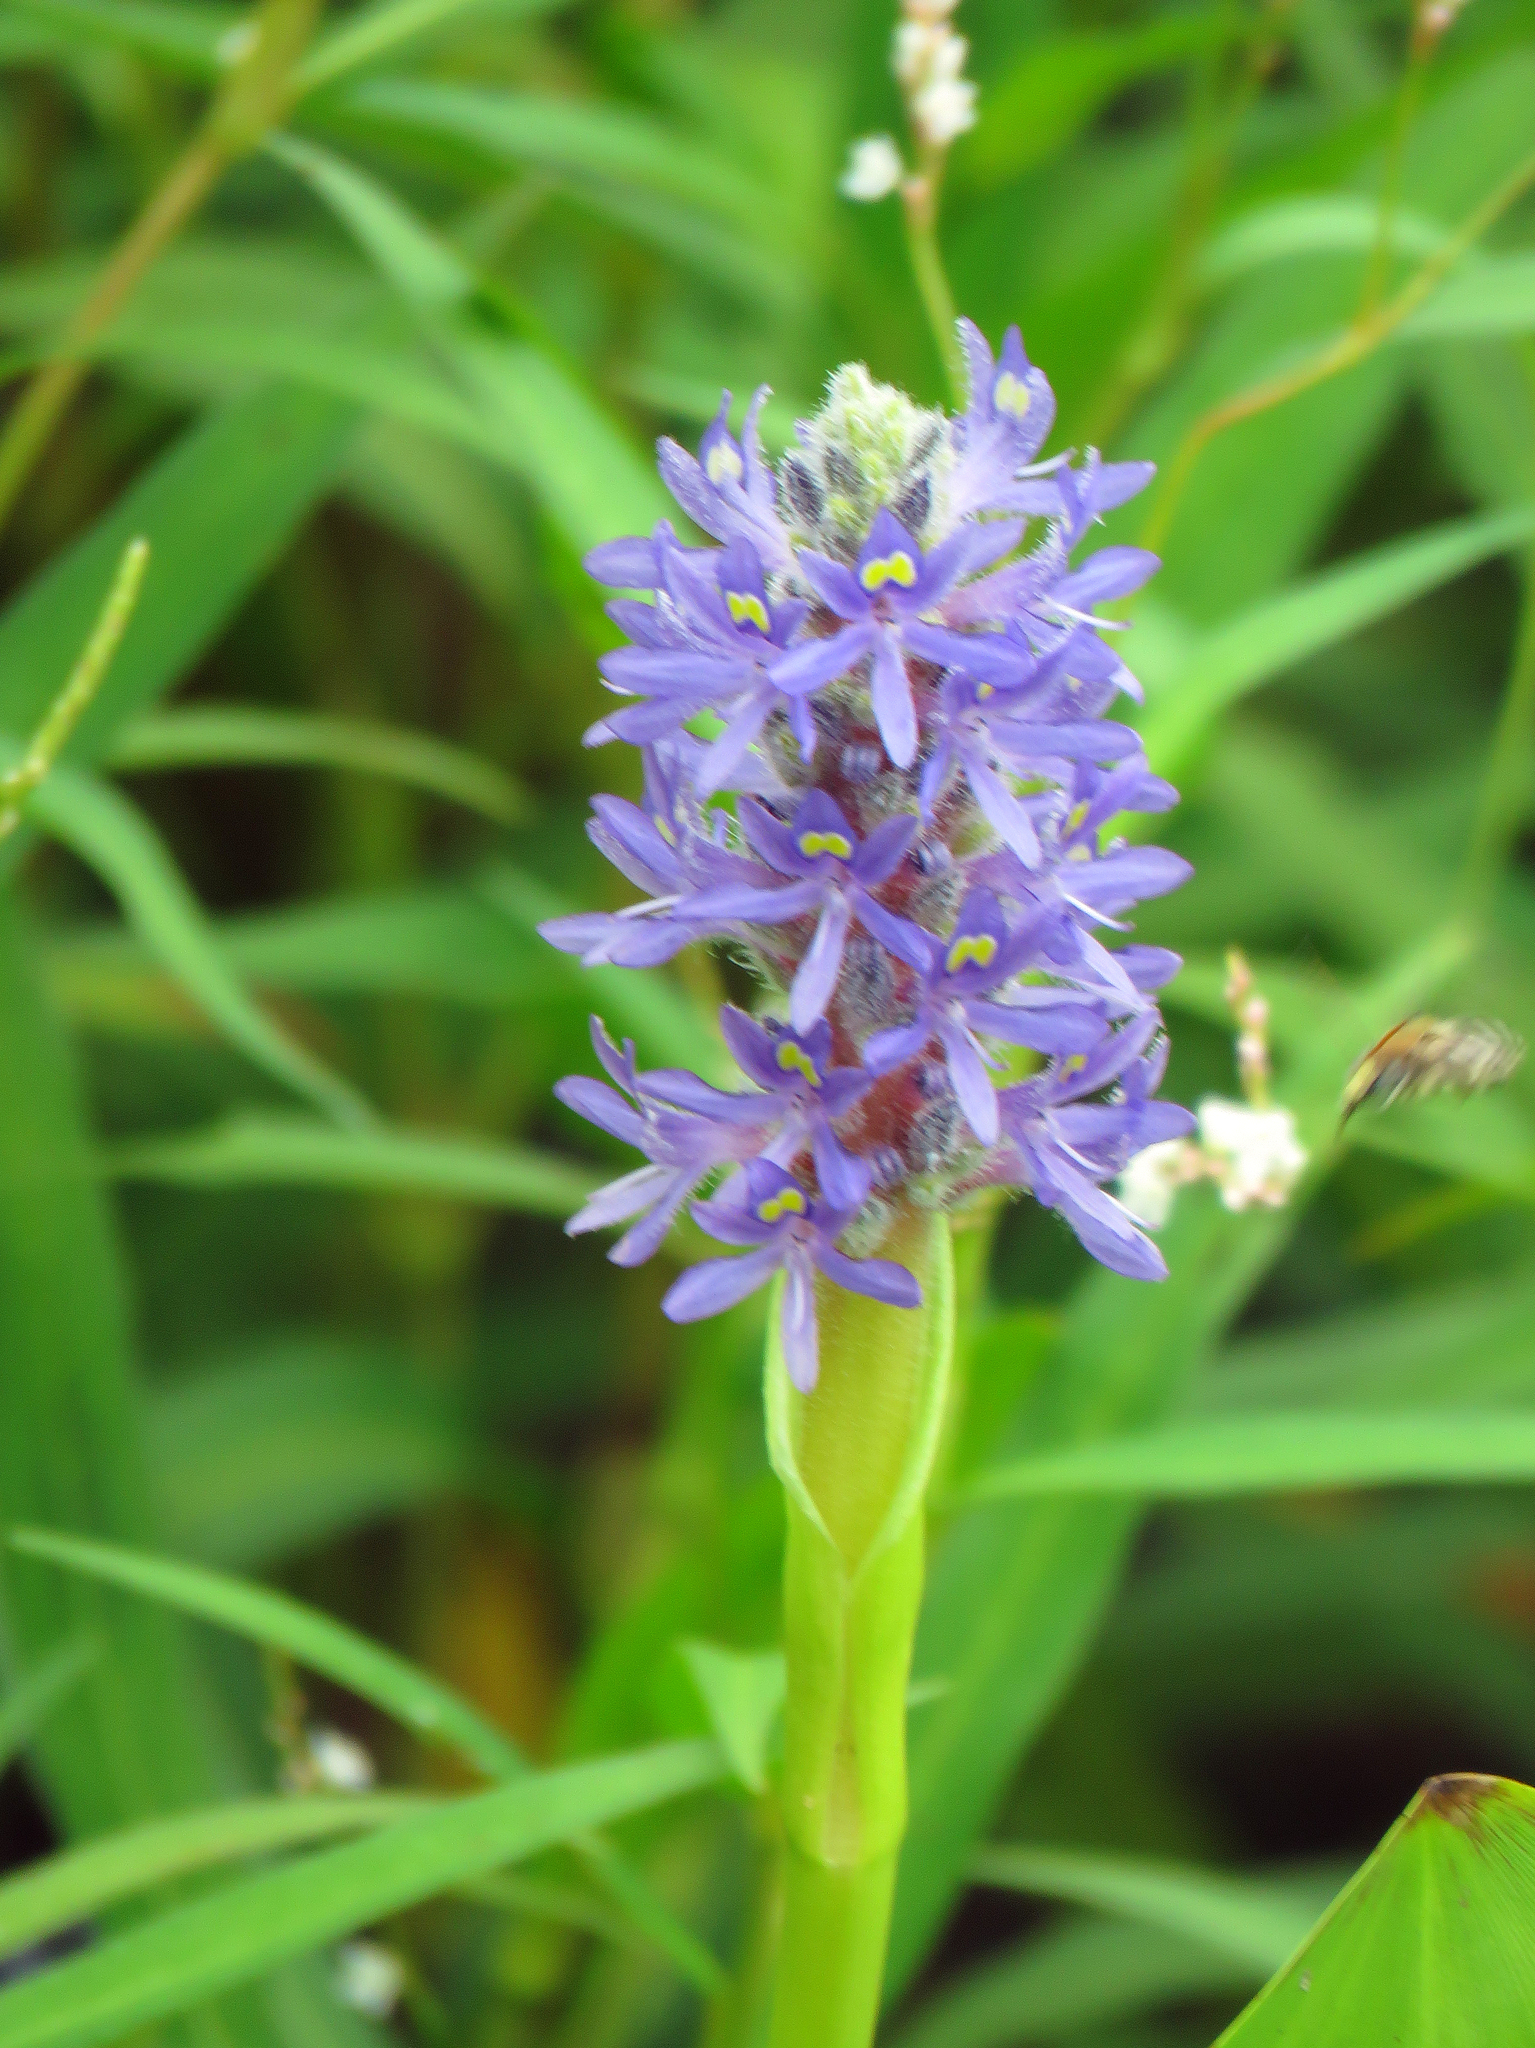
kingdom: Plantae
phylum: Tracheophyta
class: Liliopsida
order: Commelinales
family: Pontederiaceae
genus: Pontederia
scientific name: Pontederia cordata
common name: Pickerelweed
